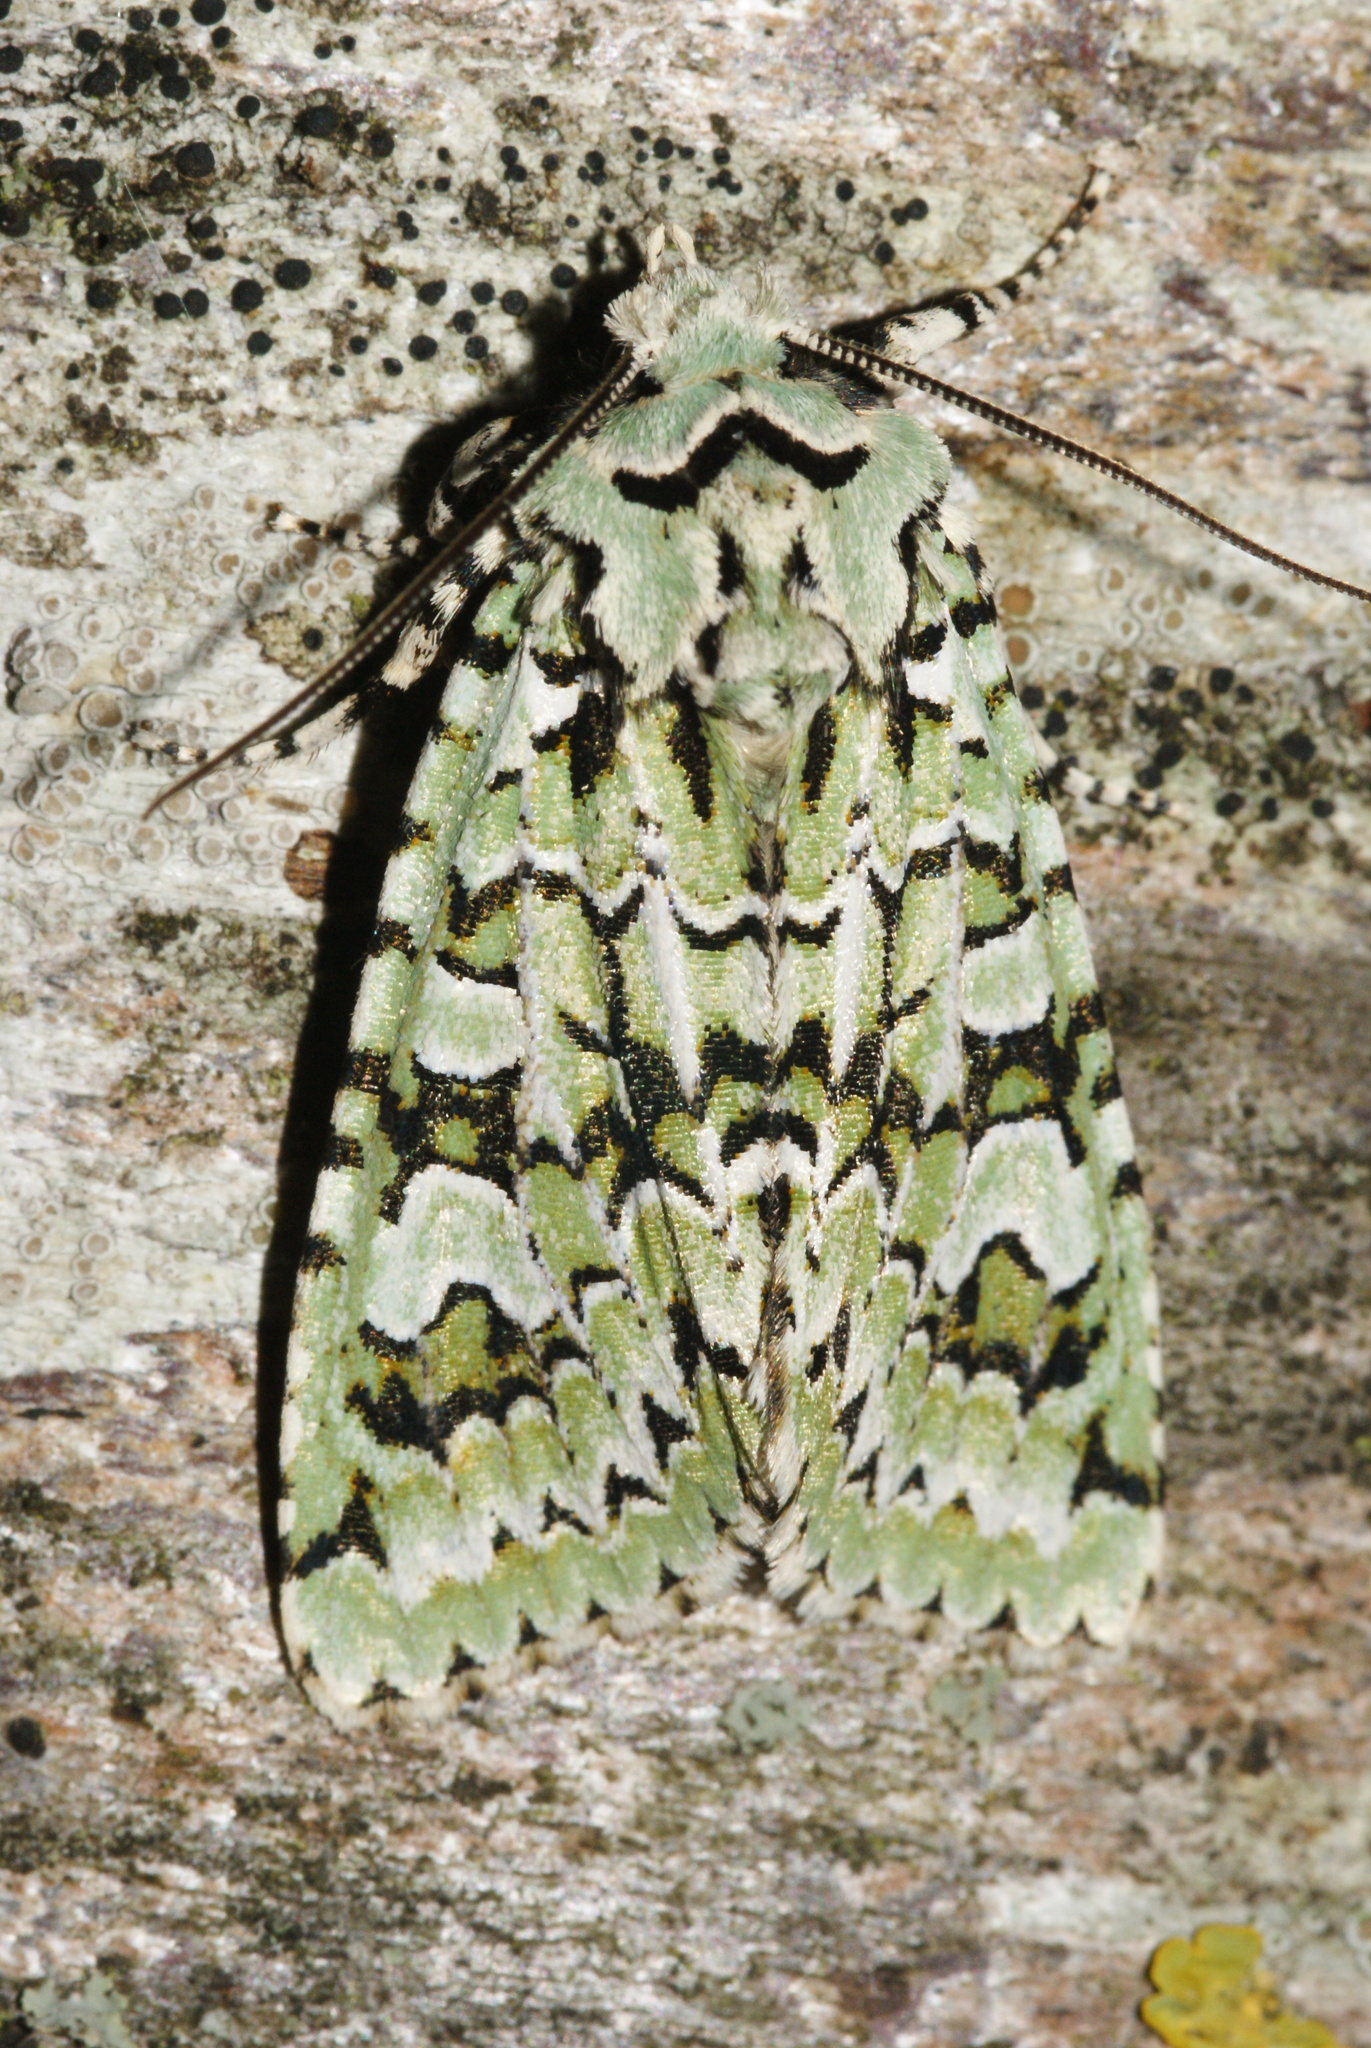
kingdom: Animalia
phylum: Arthropoda
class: Insecta
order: Lepidoptera
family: Noctuidae
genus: Griposia
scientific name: Griposia aprilina
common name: Merveille du jour
